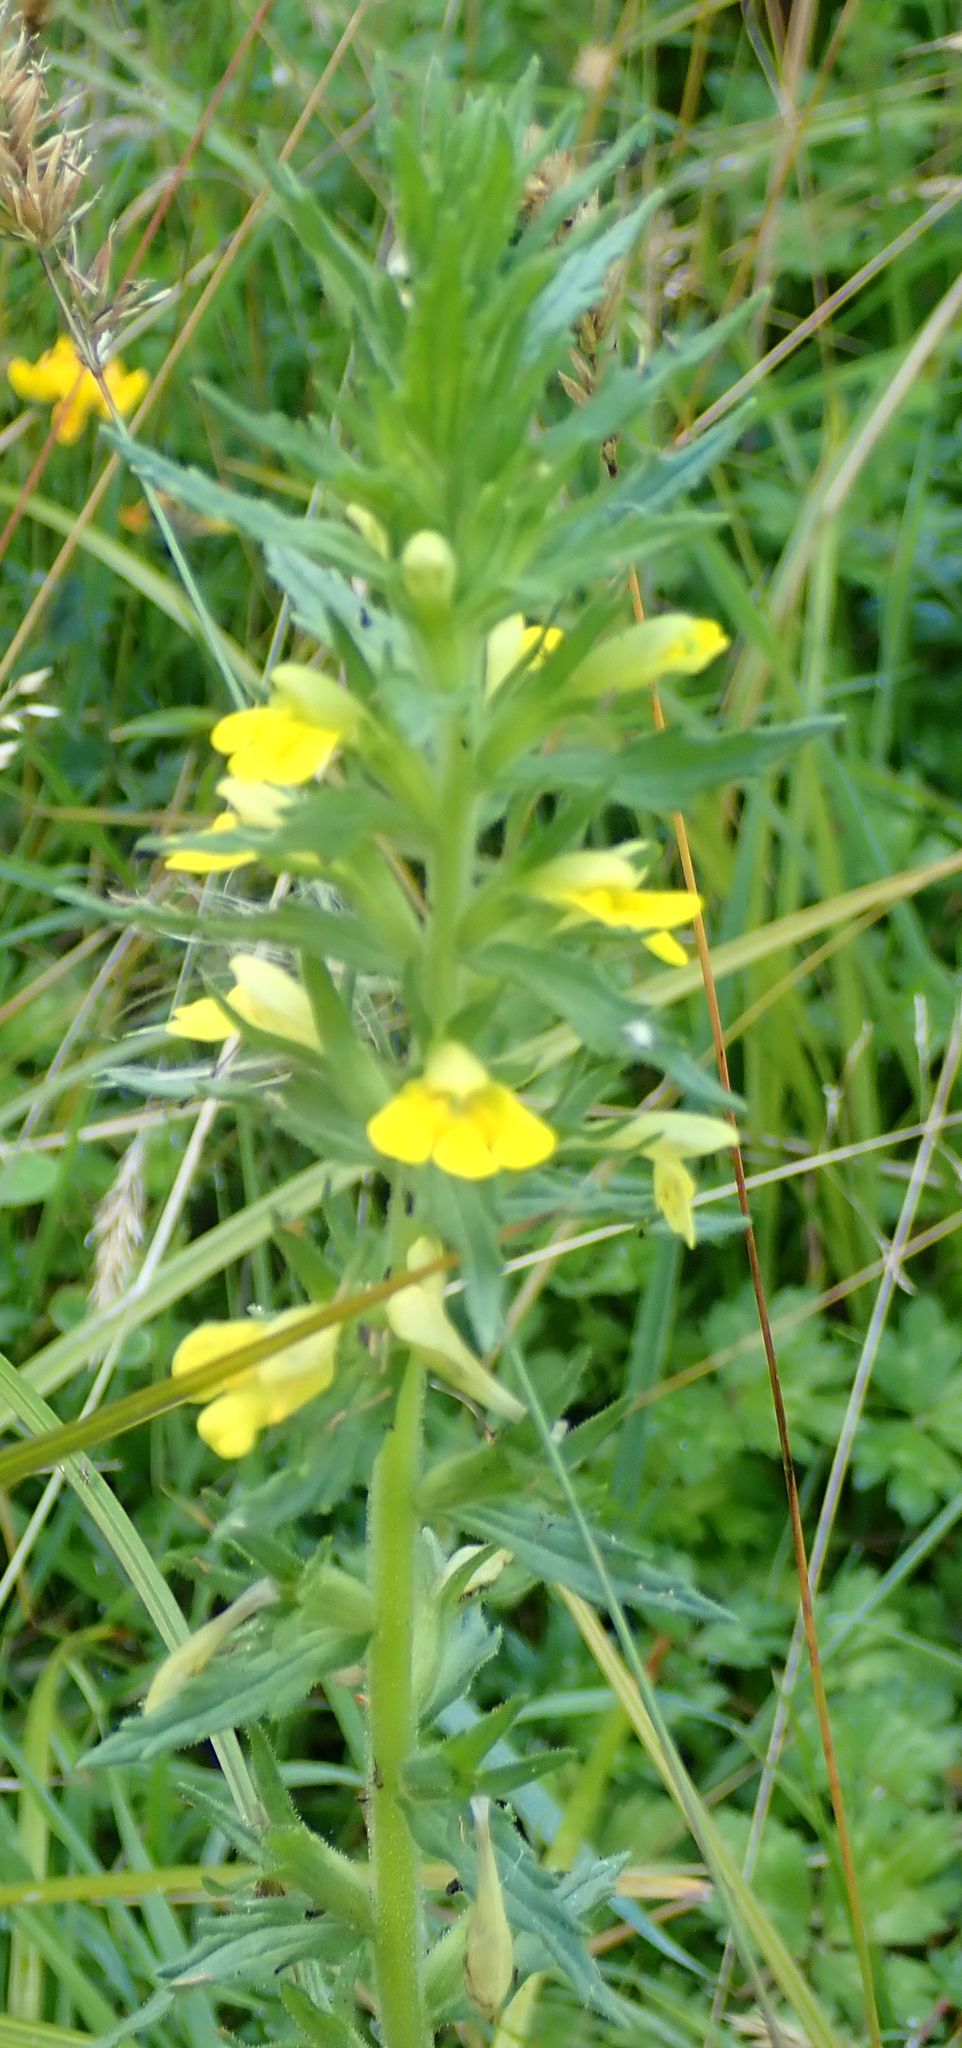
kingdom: Plantae
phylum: Tracheophyta
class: Magnoliopsida
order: Lamiales
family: Orobanchaceae
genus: Bellardia
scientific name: Bellardia viscosa
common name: Sticky parentucellia
